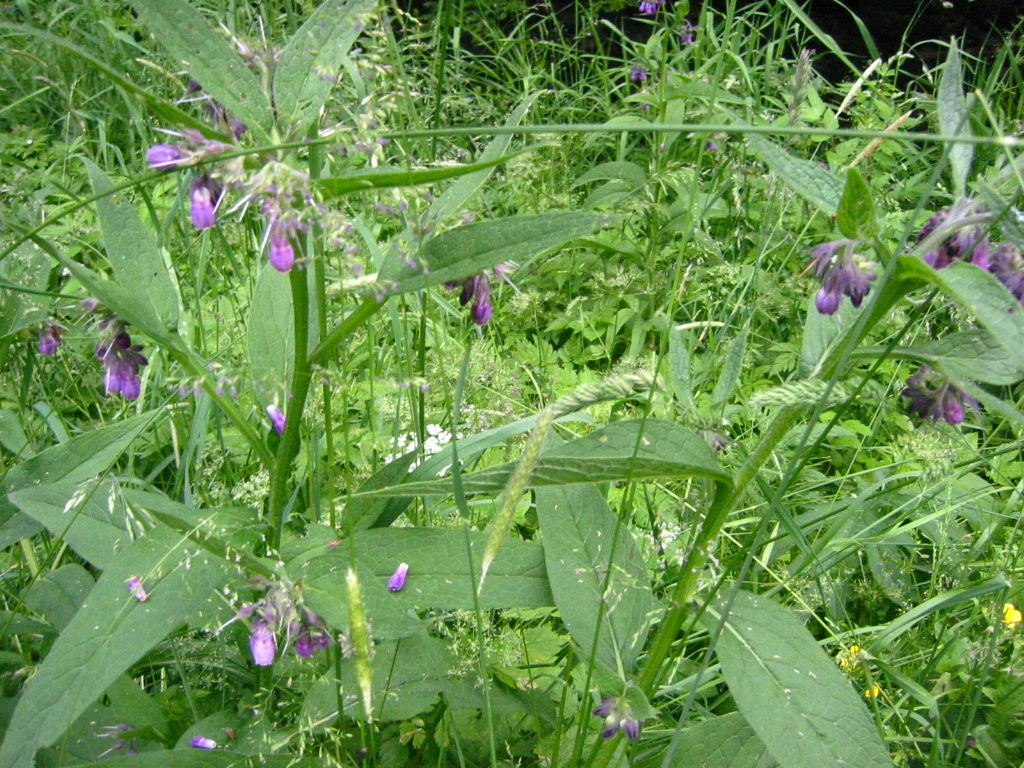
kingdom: Plantae
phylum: Tracheophyta
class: Magnoliopsida
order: Boraginales
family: Boraginaceae
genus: Symphytum
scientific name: Symphytum officinale
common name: Common comfrey
